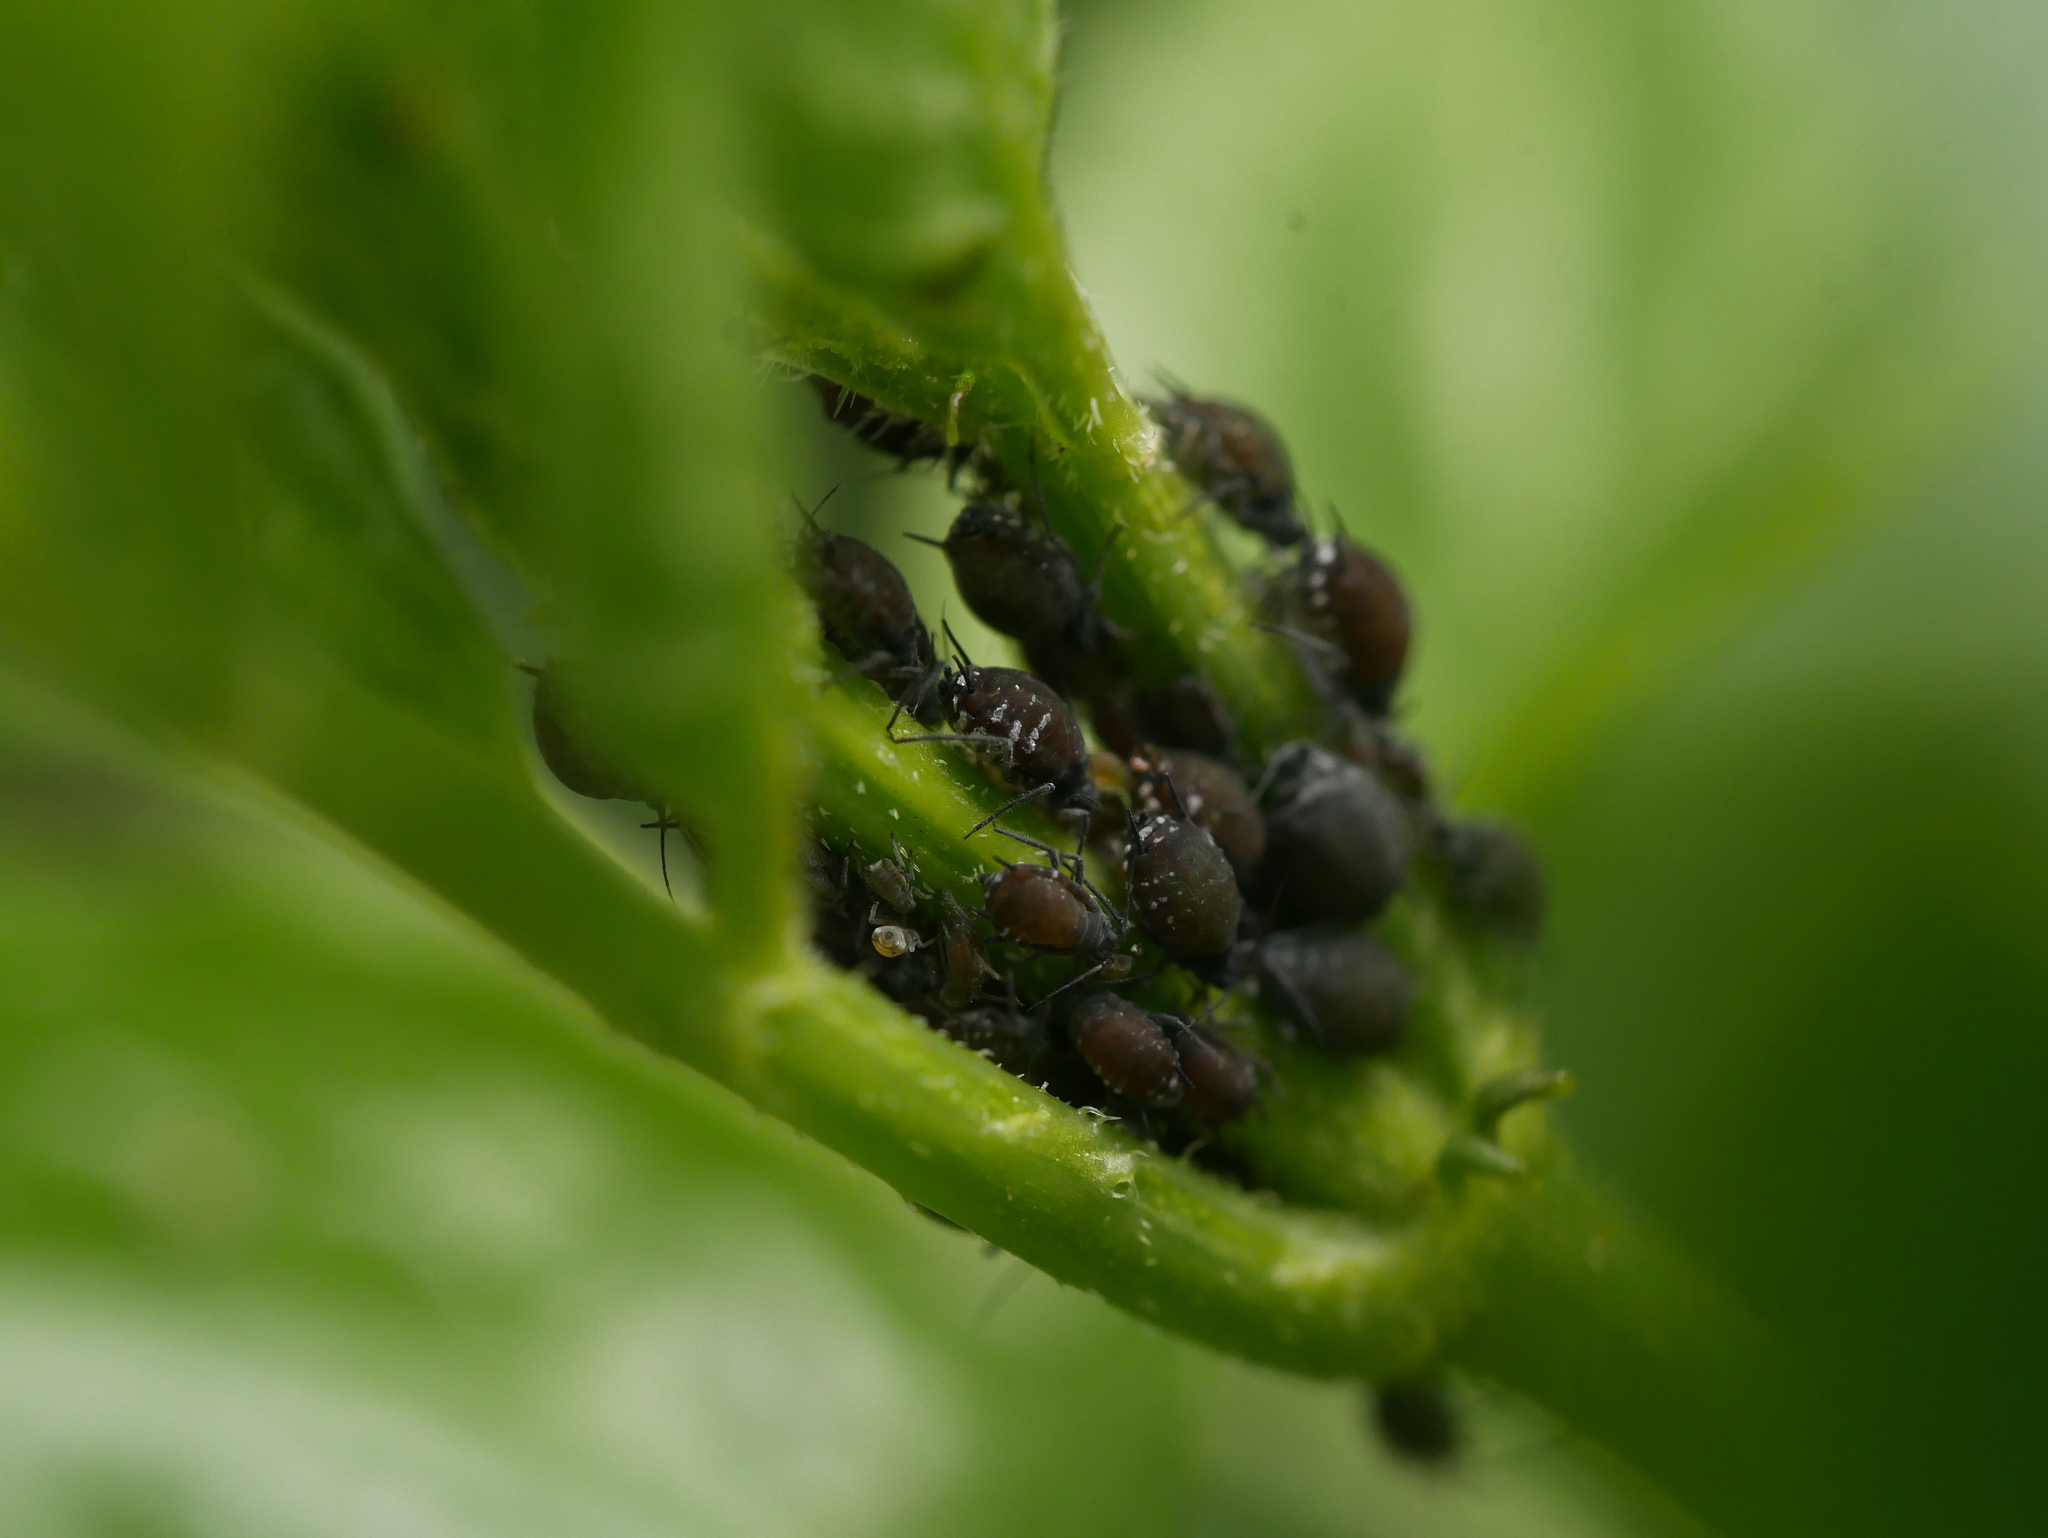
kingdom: Animalia
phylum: Arthropoda
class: Insecta
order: Hemiptera
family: Aphididae
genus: Aphis
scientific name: Aphis sambuci
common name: Elder aphid
